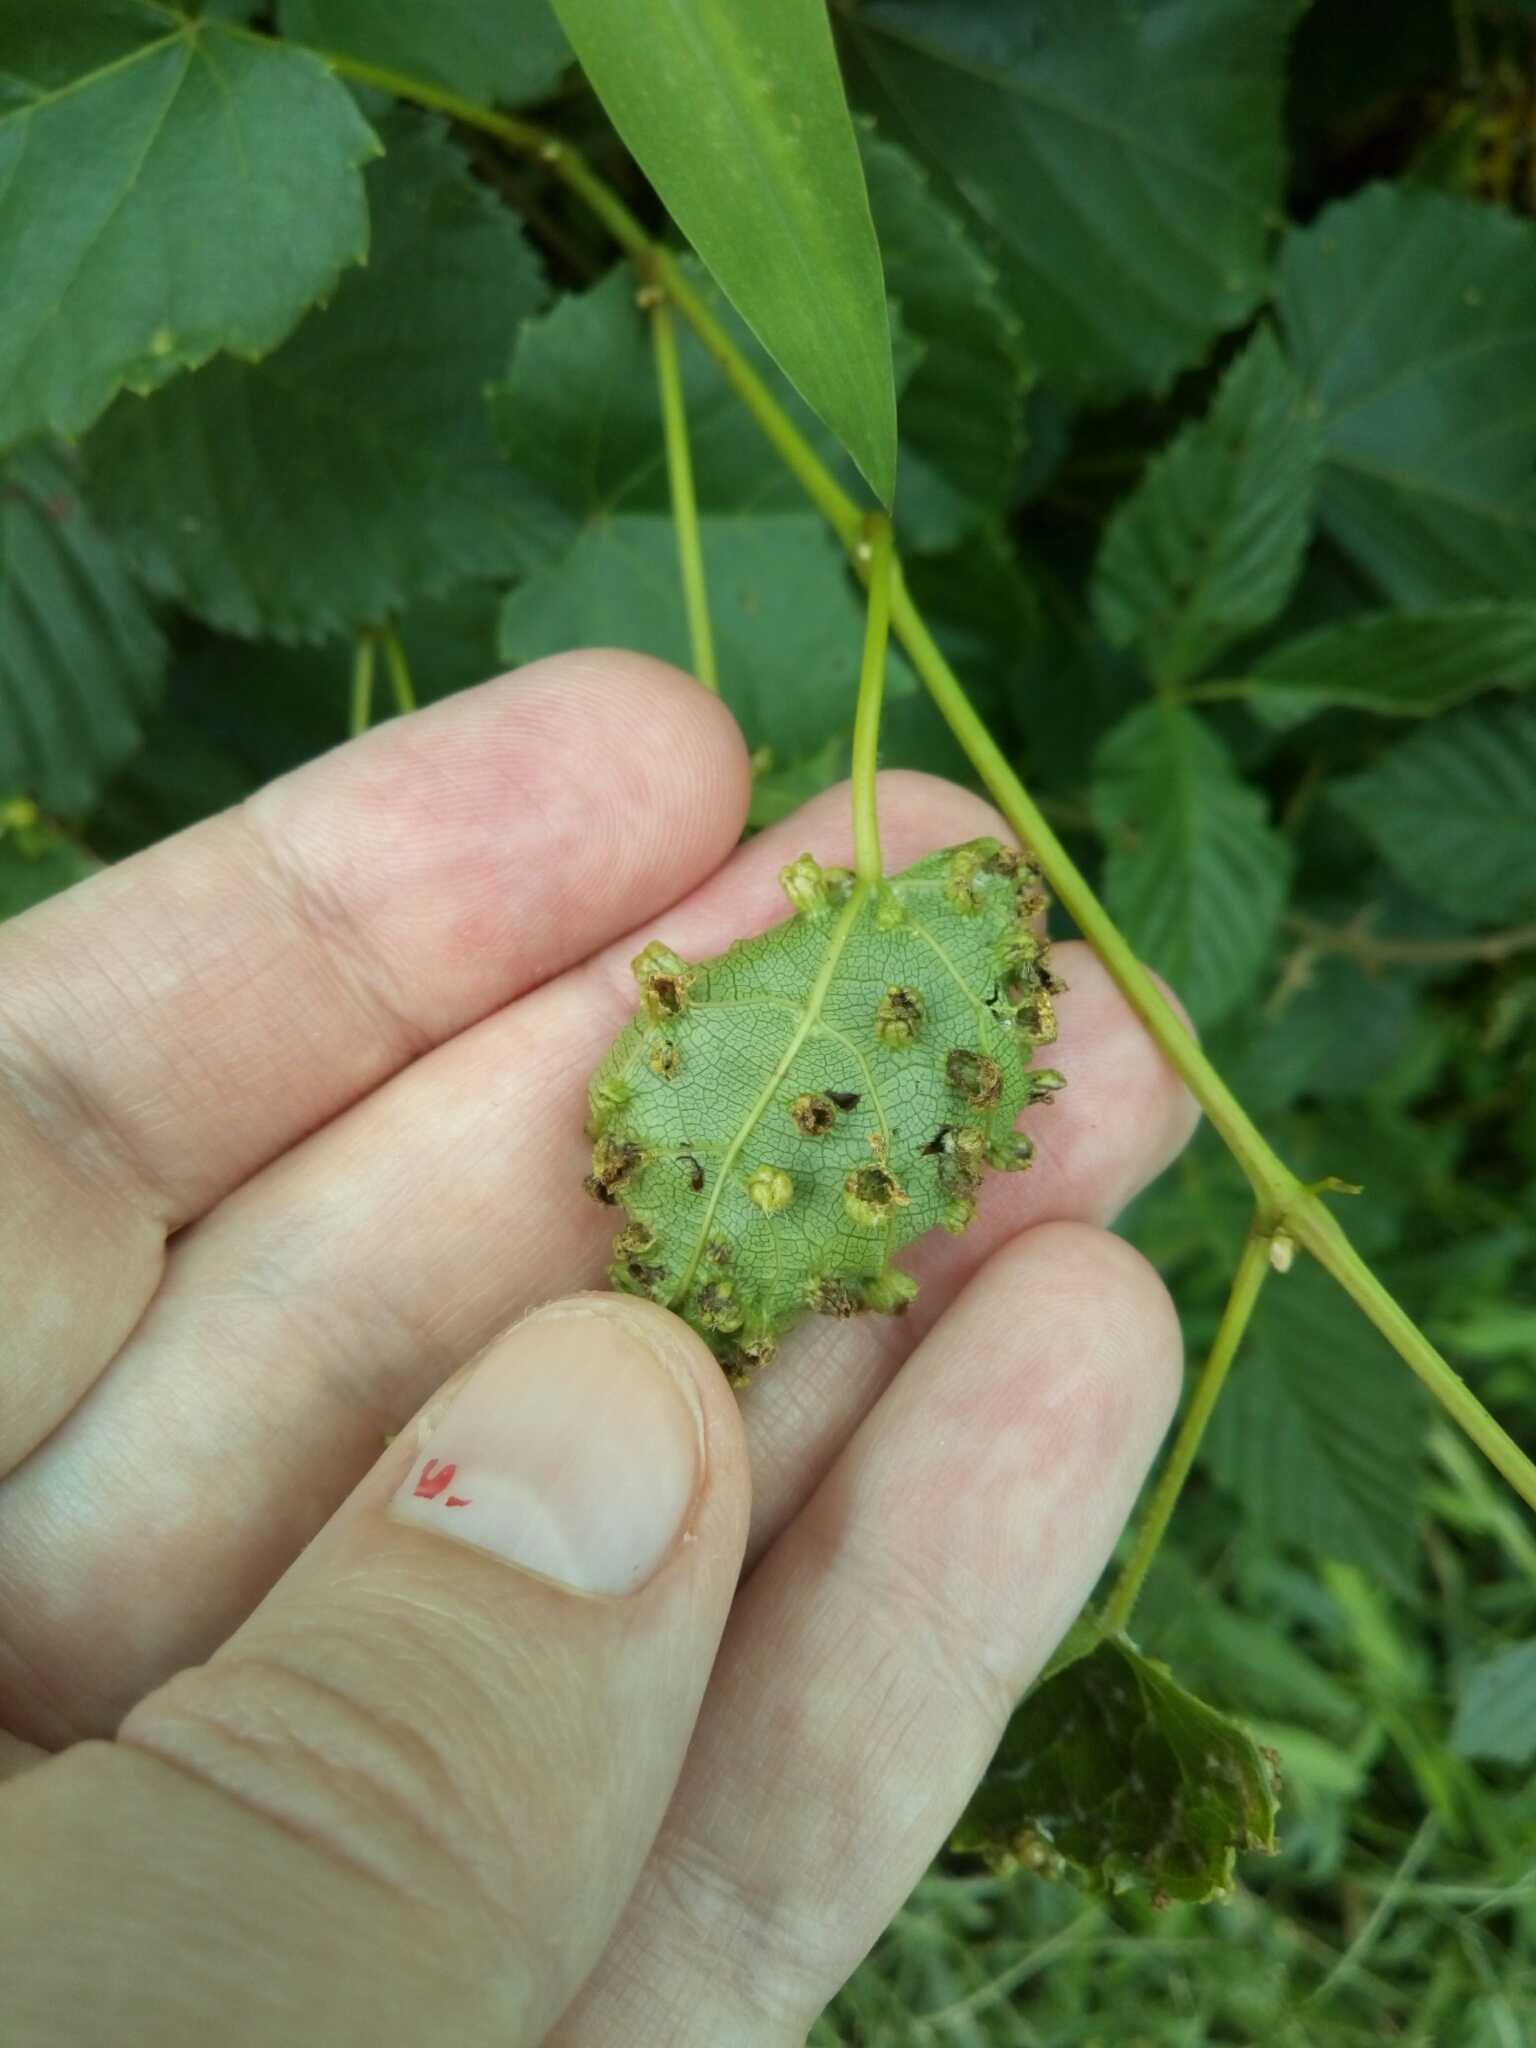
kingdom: Animalia
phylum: Arthropoda
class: Insecta
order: Hemiptera
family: Phylloxeridae
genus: Daktulosphaira
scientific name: Daktulosphaira vitifoliae
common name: Grape phylloxera
